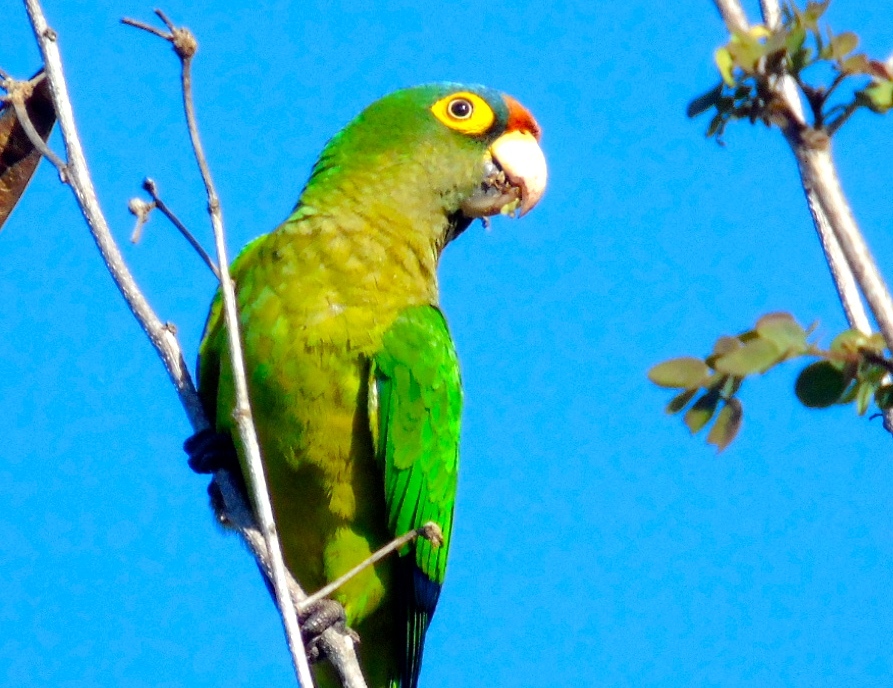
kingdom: Animalia
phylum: Chordata
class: Aves
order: Psittaciformes
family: Psittacidae
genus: Aratinga
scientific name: Aratinga canicularis
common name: Orange-fronted parakeet
